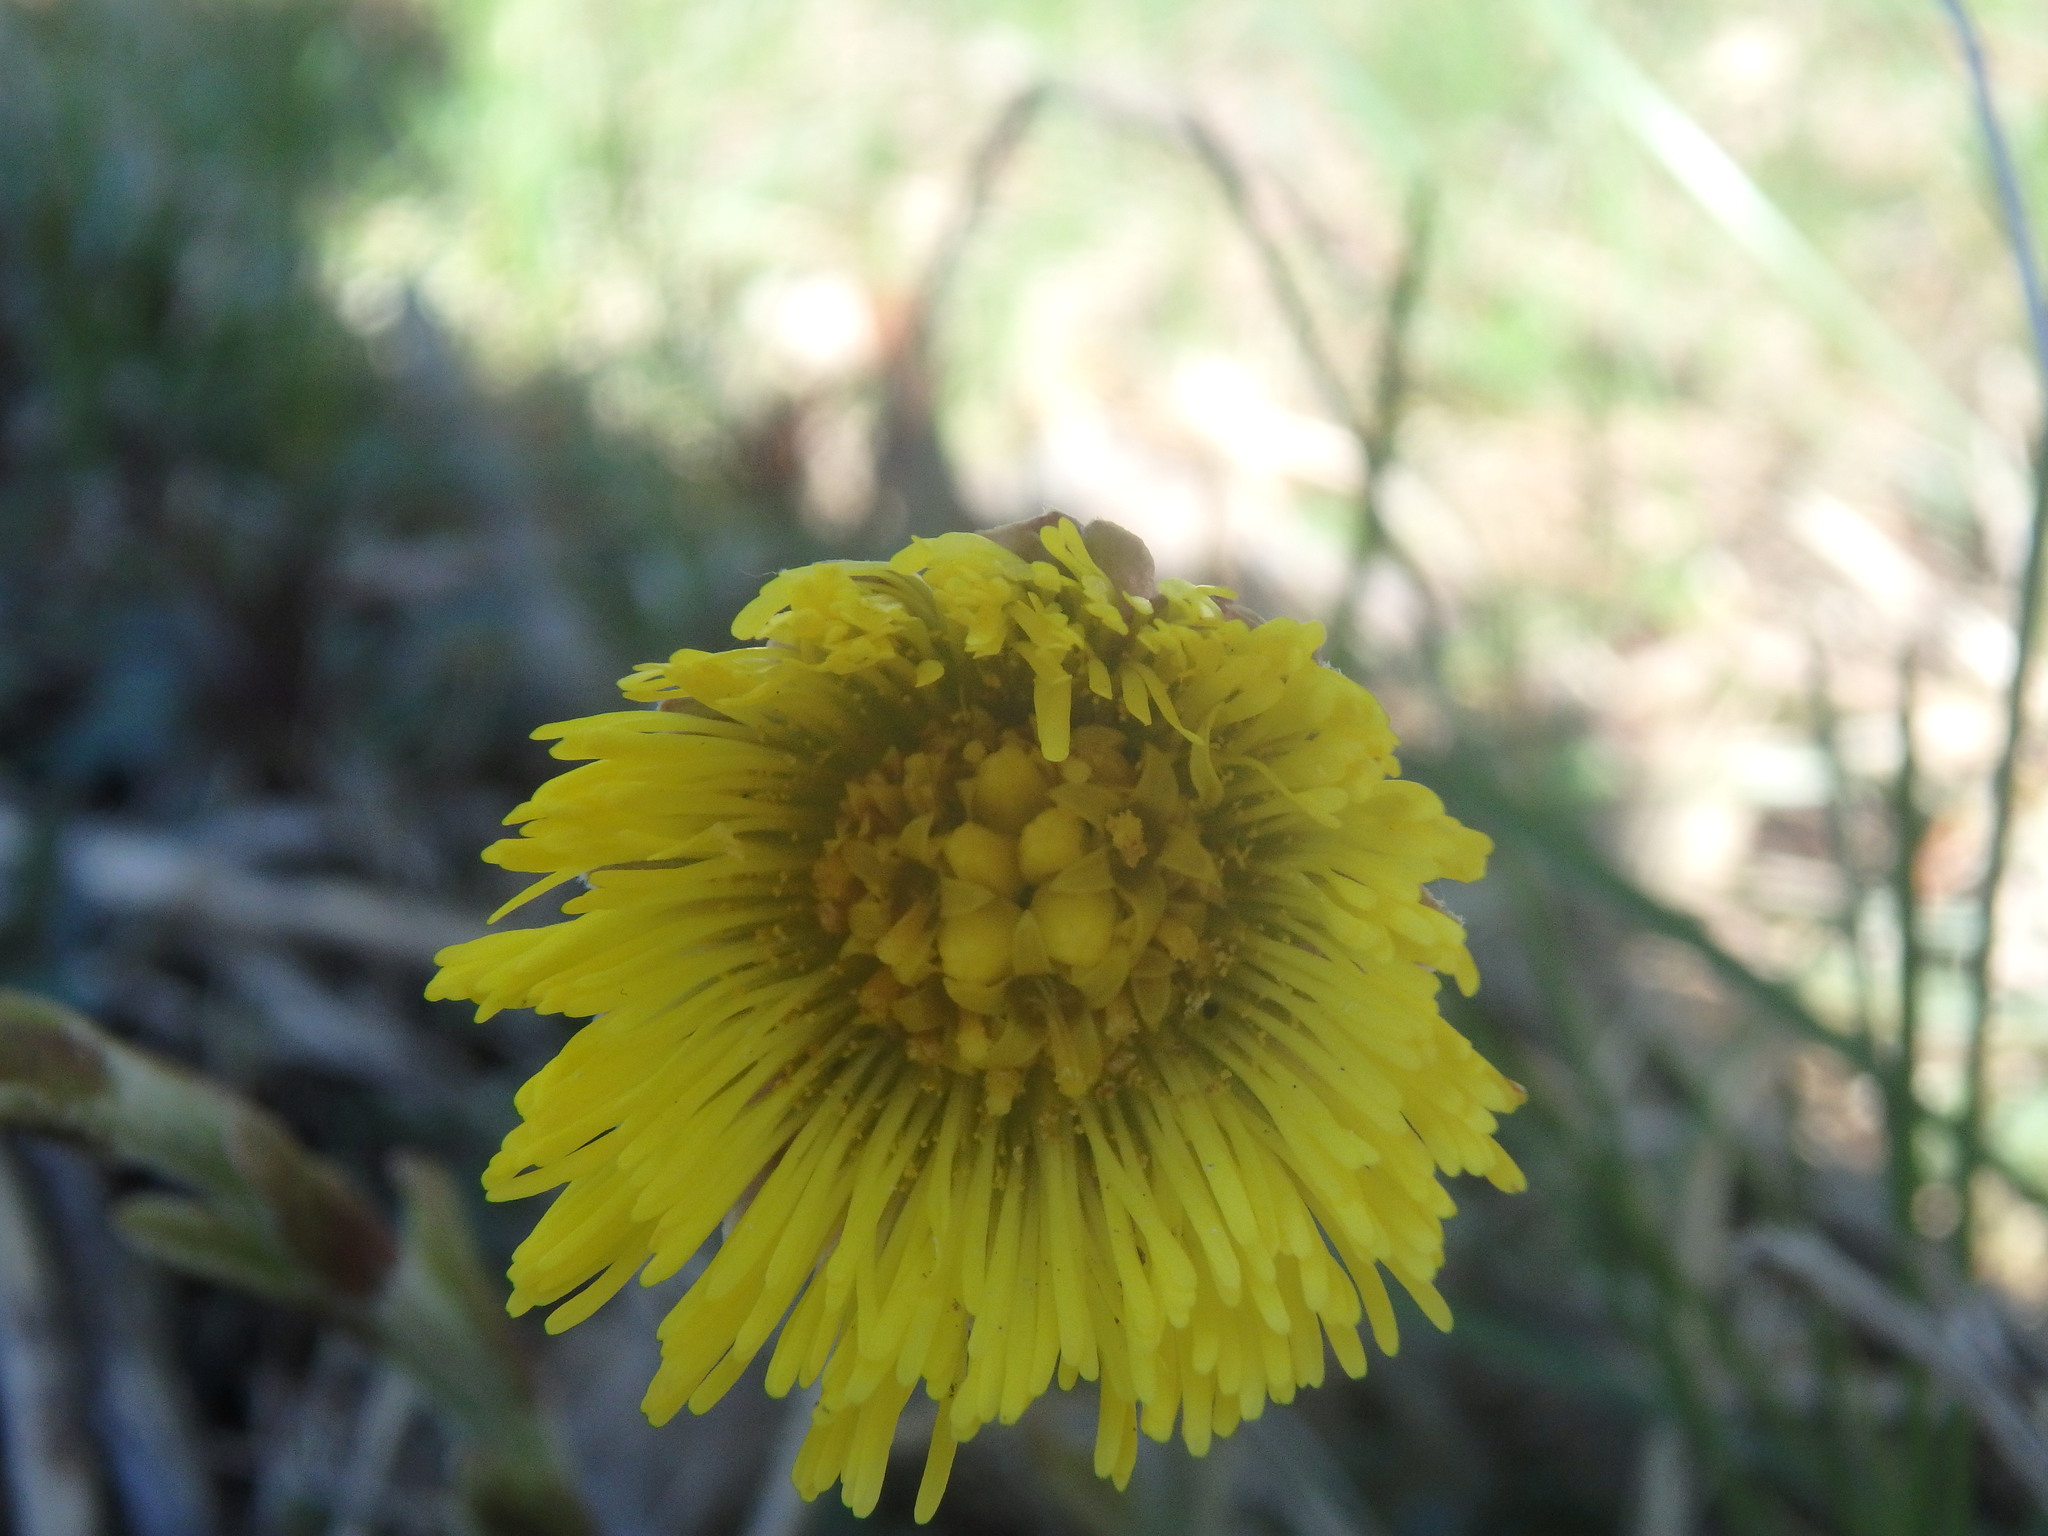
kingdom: Plantae
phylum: Tracheophyta
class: Magnoliopsida
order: Asterales
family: Asteraceae
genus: Tussilago
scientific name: Tussilago farfara
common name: Coltsfoot
